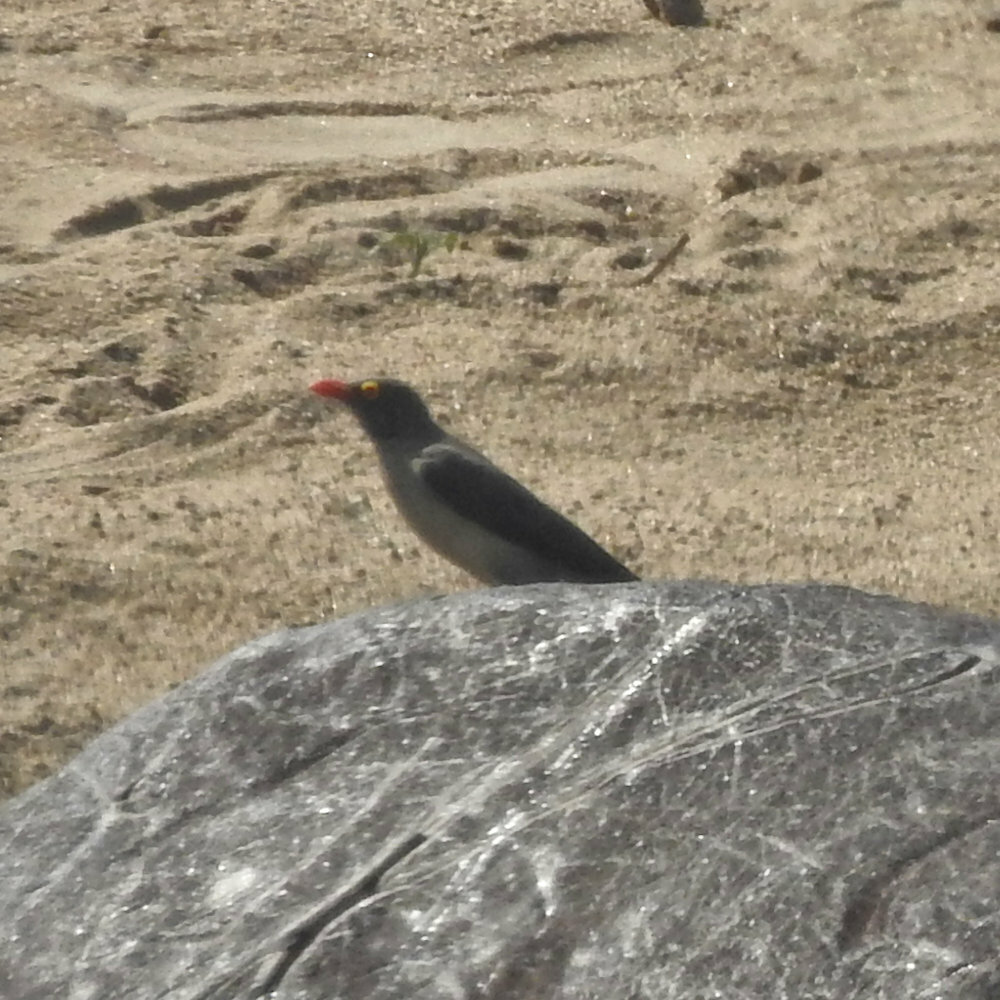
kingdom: Animalia
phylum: Chordata
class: Aves
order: Passeriformes
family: Buphagidae
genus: Buphagus
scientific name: Buphagus erythrorhynchus
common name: Red-billed oxpecker
